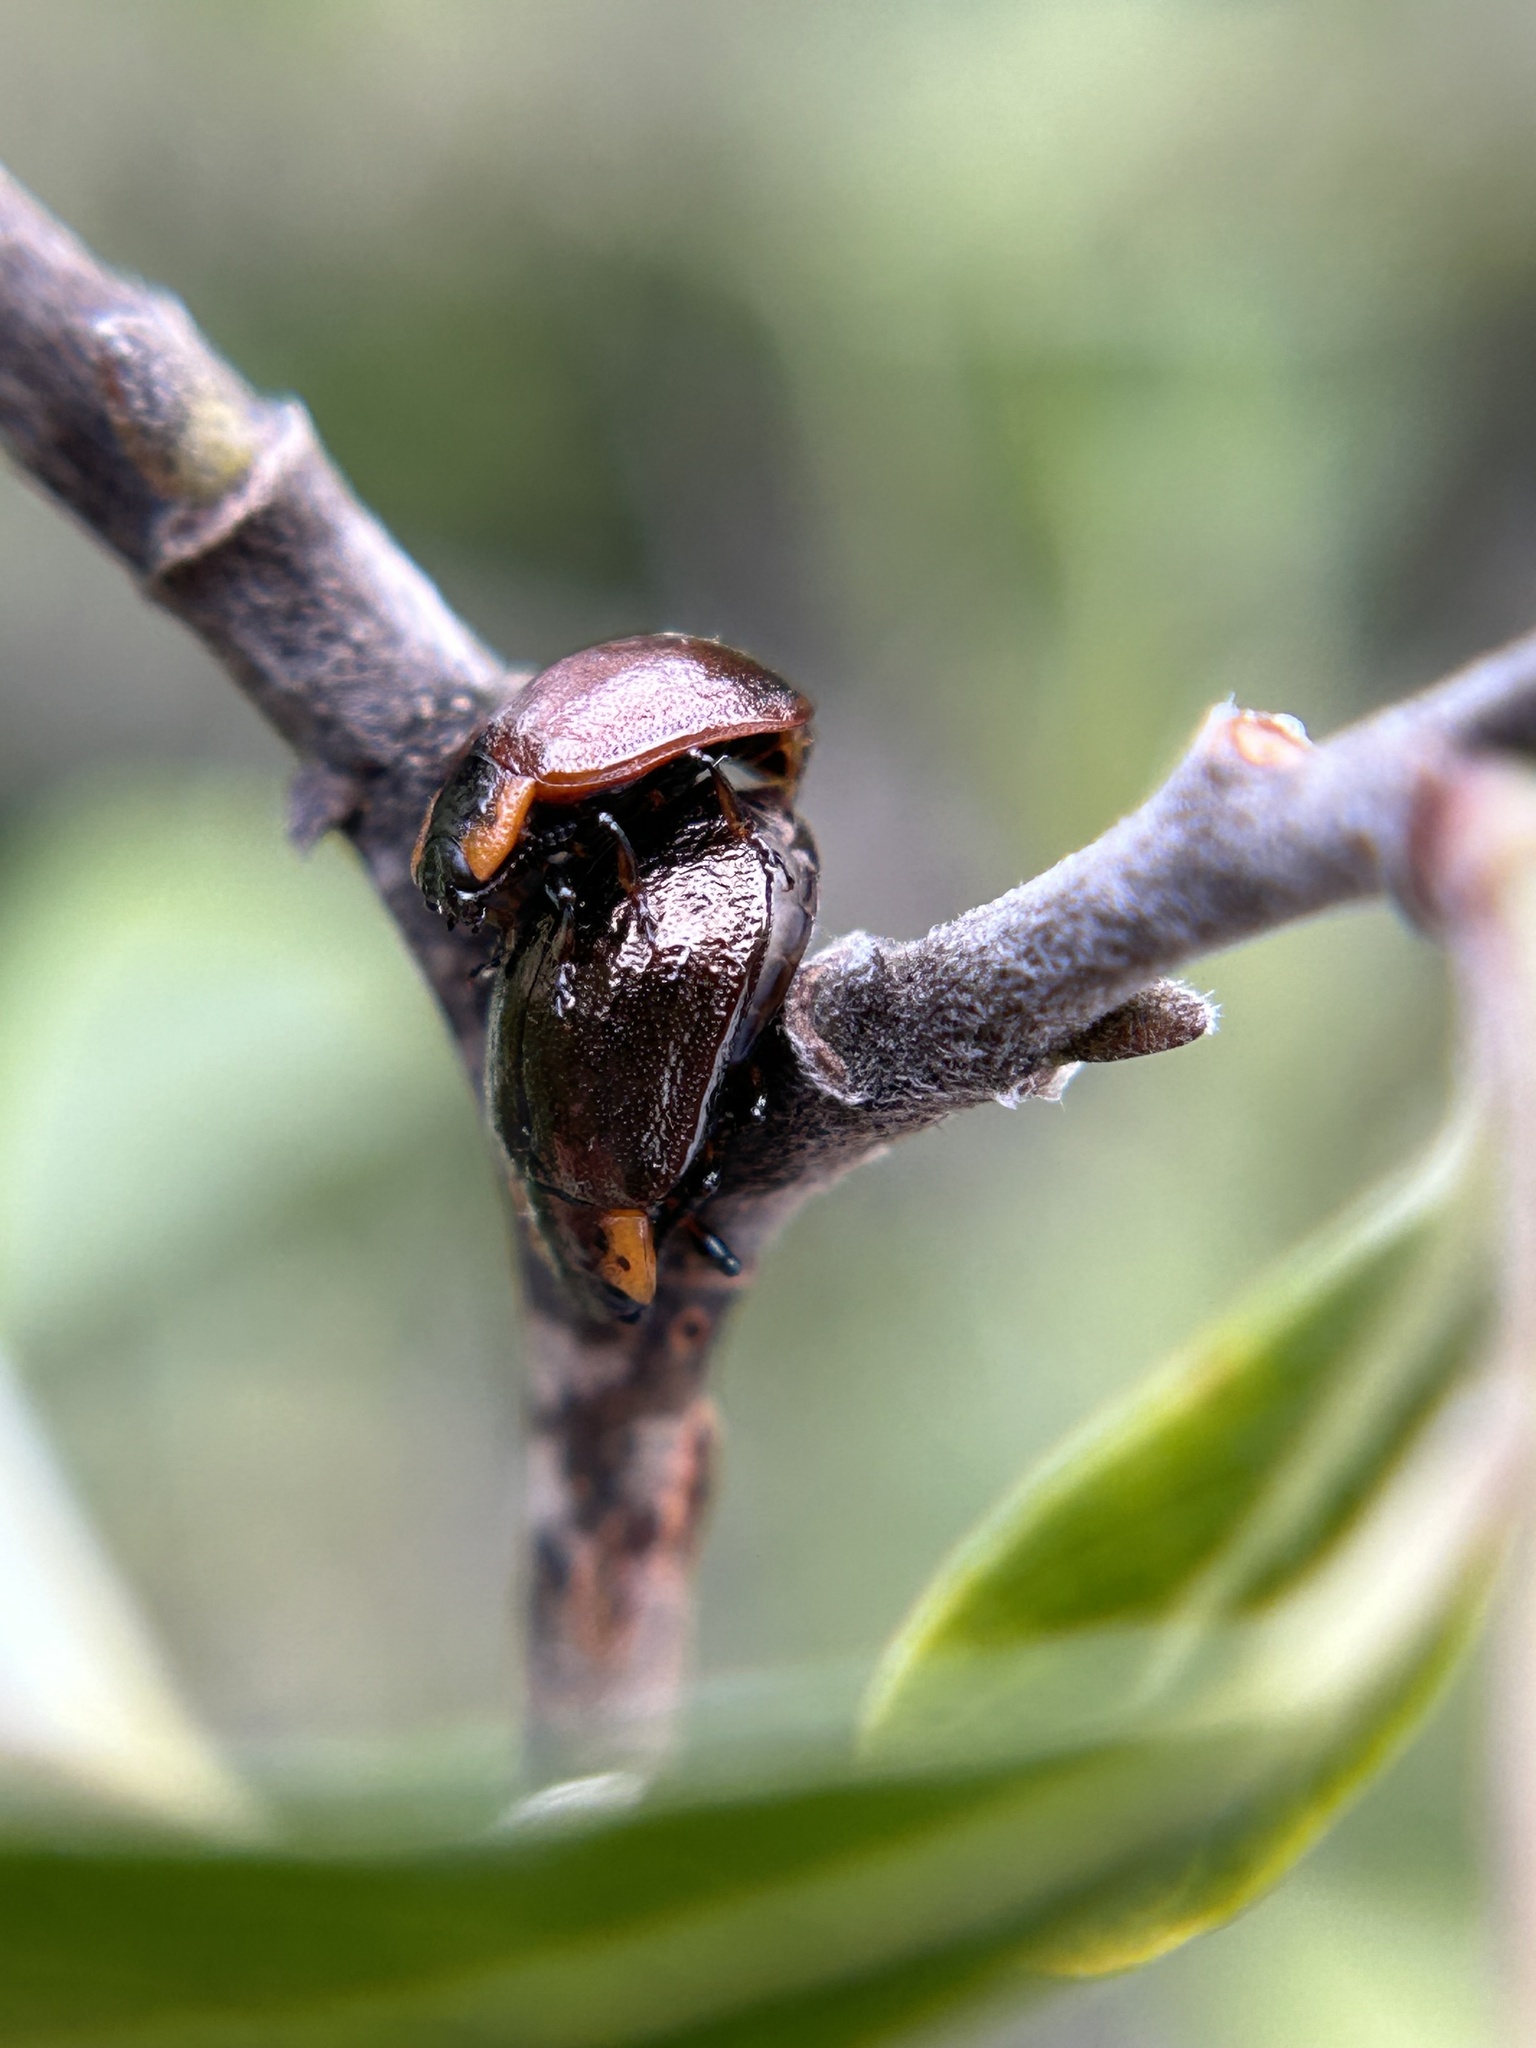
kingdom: Animalia
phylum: Arthropoda
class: Insecta
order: Coleoptera
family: Chrysomelidae
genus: Chrysomela
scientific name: Chrysomela schaefferi
